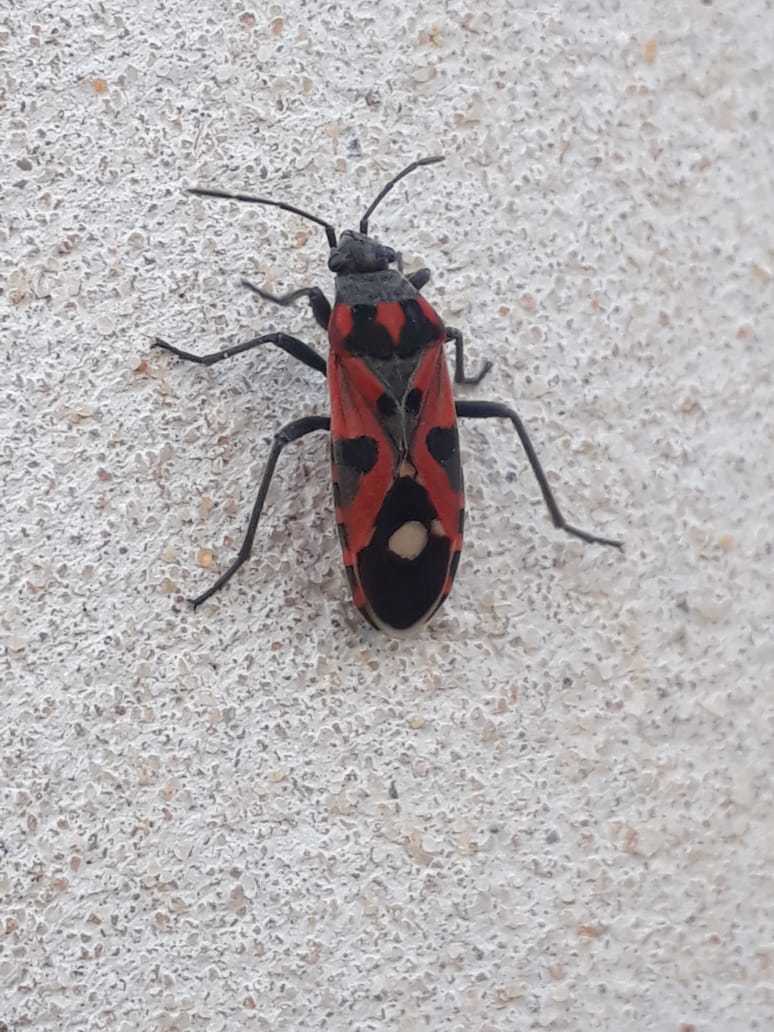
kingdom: Animalia
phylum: Arthropoda
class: Insecta
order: Hemiptera
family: Lygaeidae
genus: Lygaeus
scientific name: Lygaeus alboornatus
